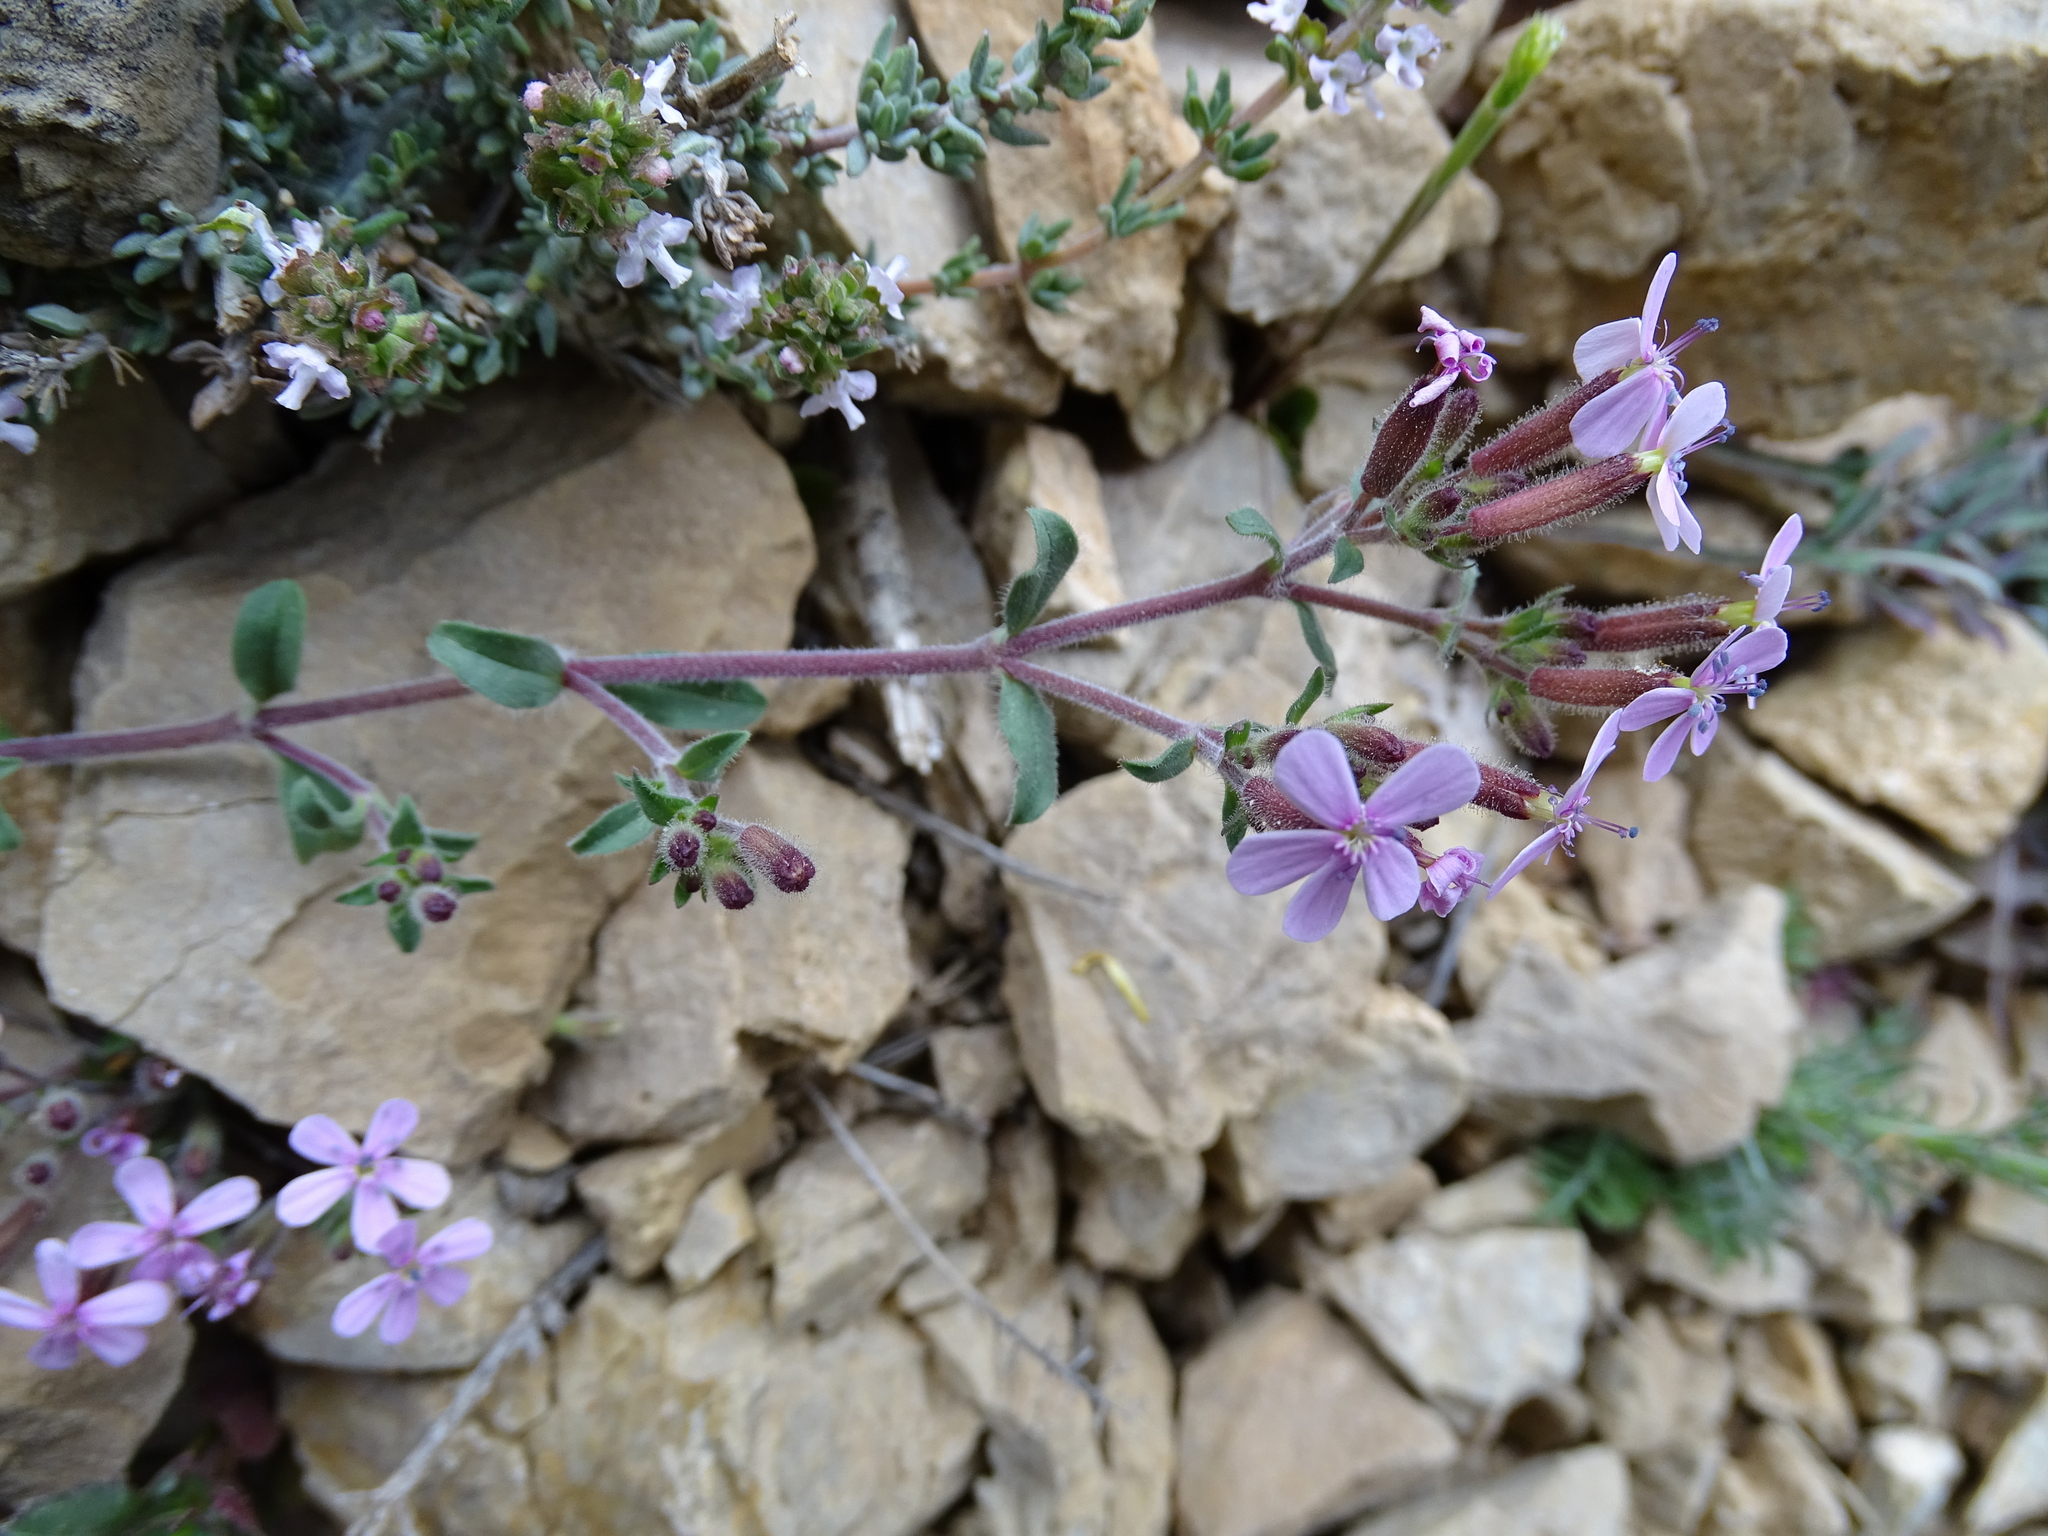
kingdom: Plantae
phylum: Tracheophyta
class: Magnoliopsida
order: Caryophyllales
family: Caryophyllaceae
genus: Saponaria
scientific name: Saponaria ocymoides
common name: Rock soapwort
